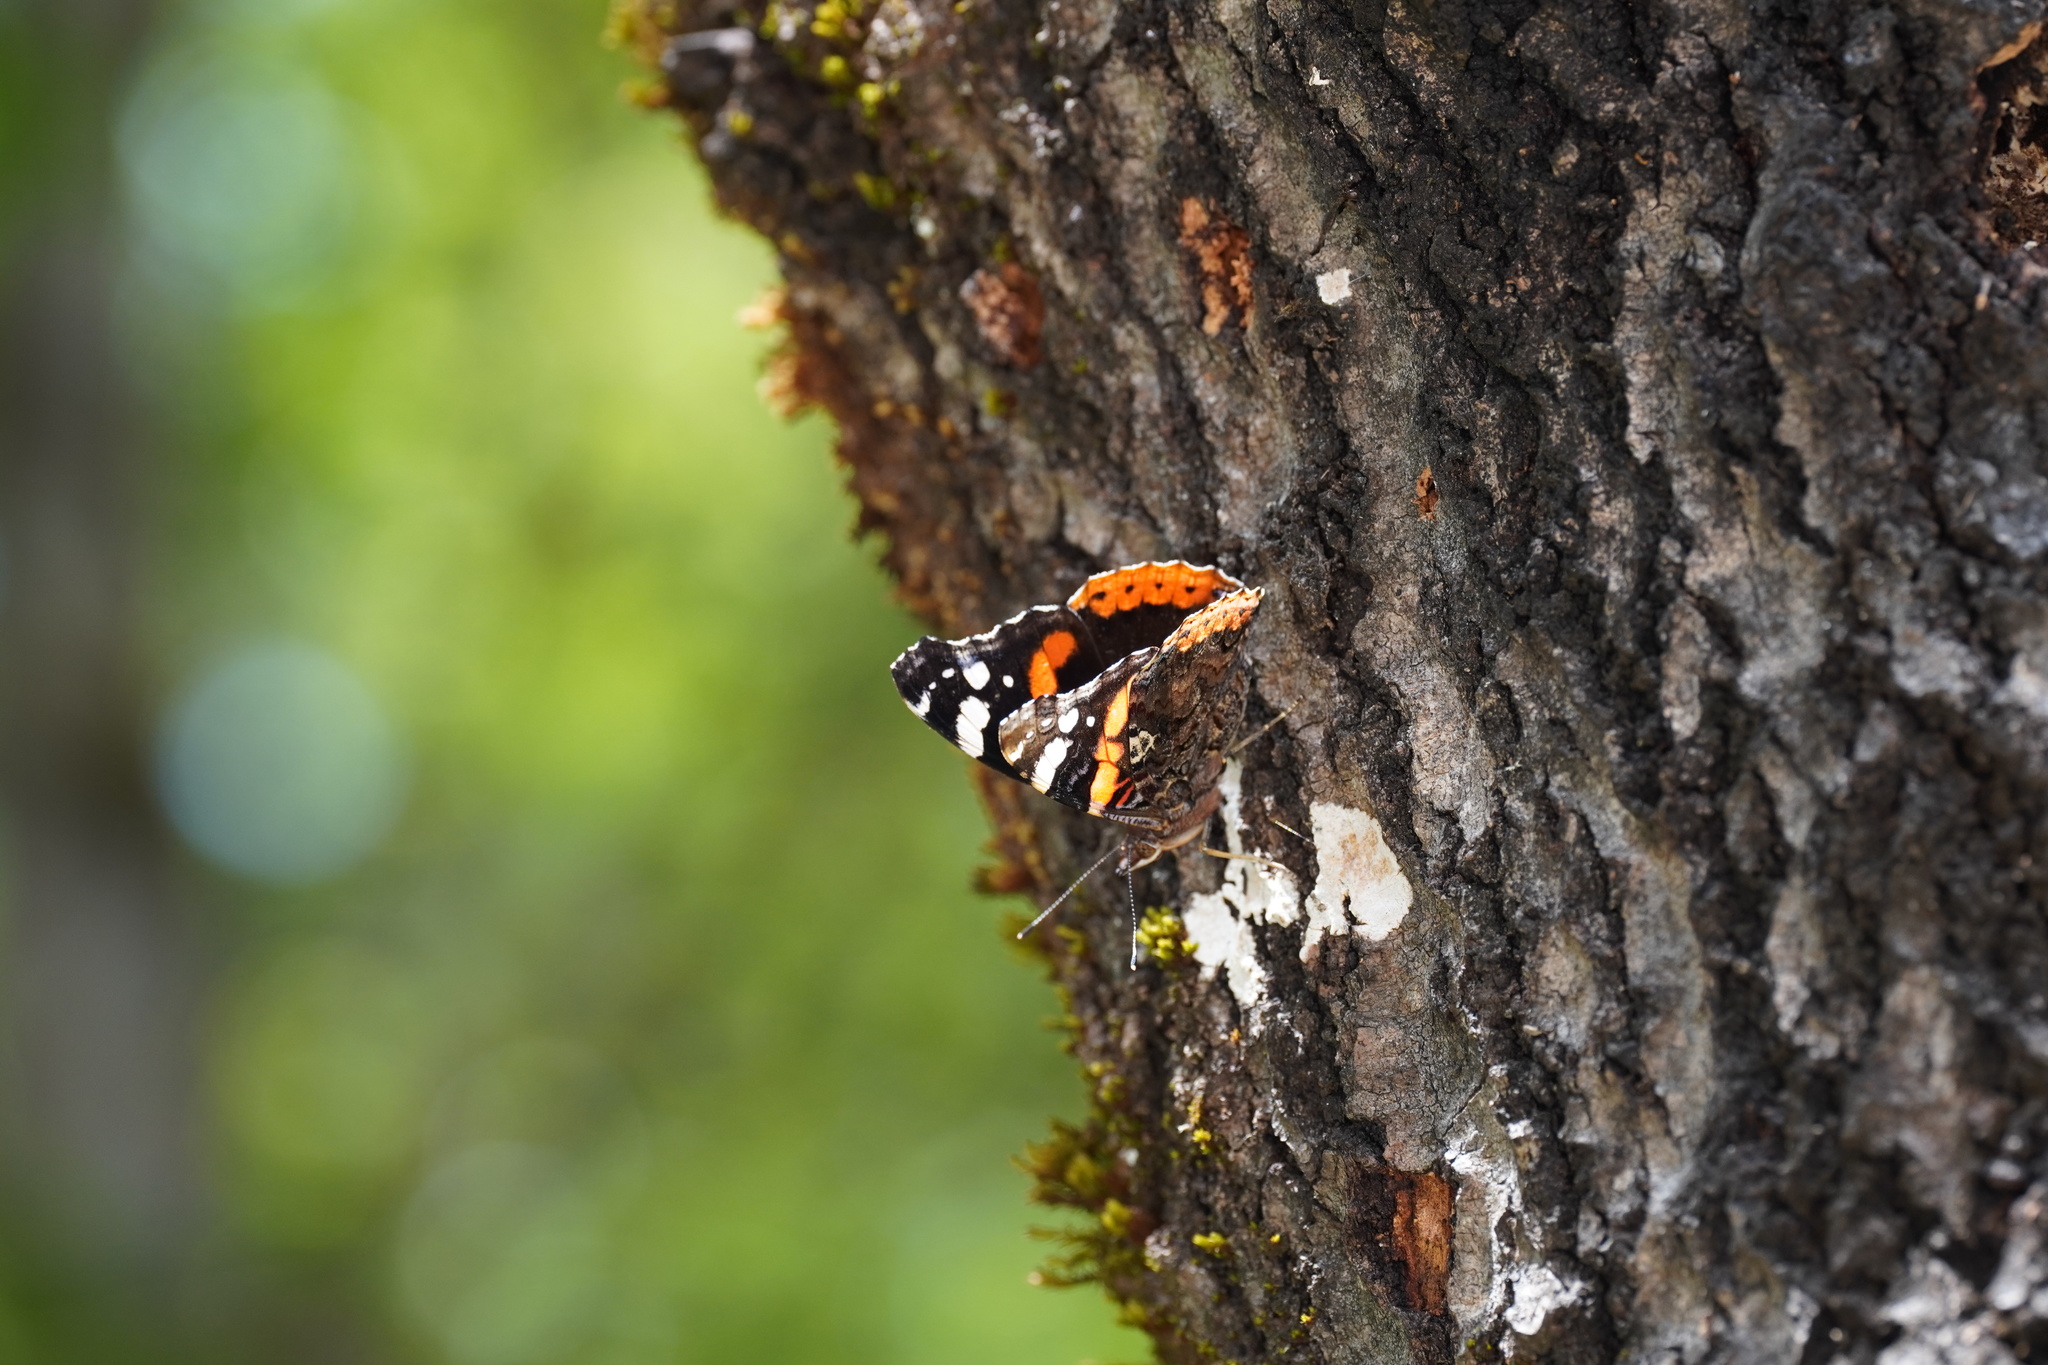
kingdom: Animalia
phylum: Arthropoda
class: Insecta
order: Lepidoptera
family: Nymphalidae
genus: Vanessa
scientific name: Vanessa atalanta
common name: Red admiral
